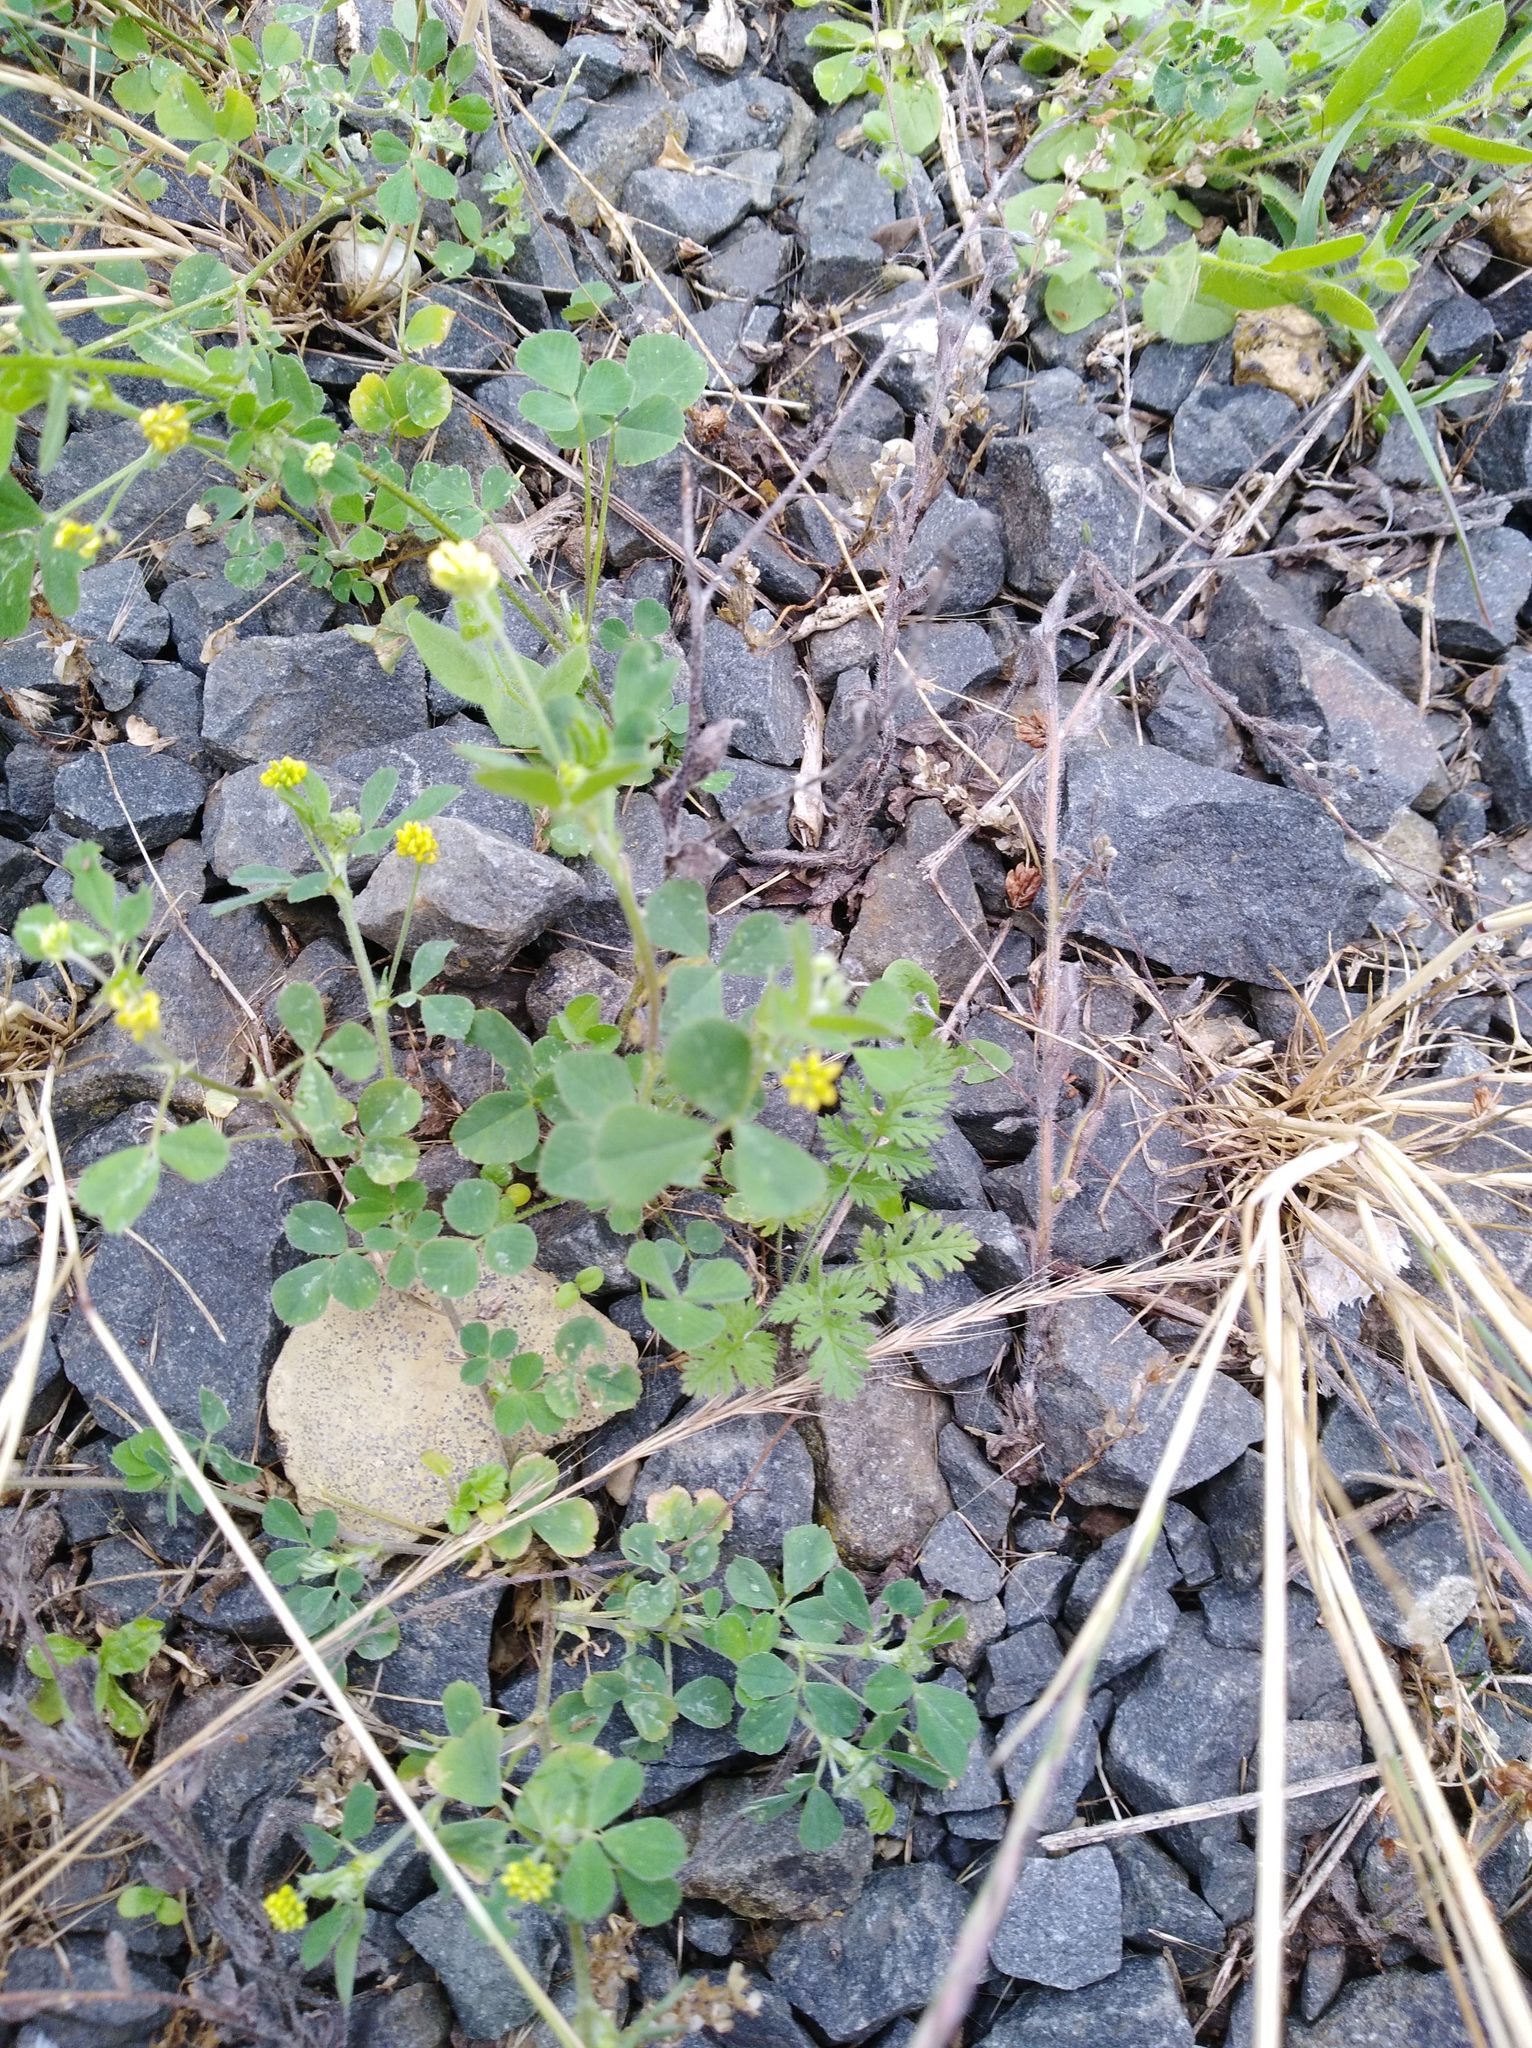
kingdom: Plantae
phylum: Tracheophyta
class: Magnoliopsida
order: Fabales
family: Fabaceae
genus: Medicago
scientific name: Medicago lupulina
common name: Black medick
